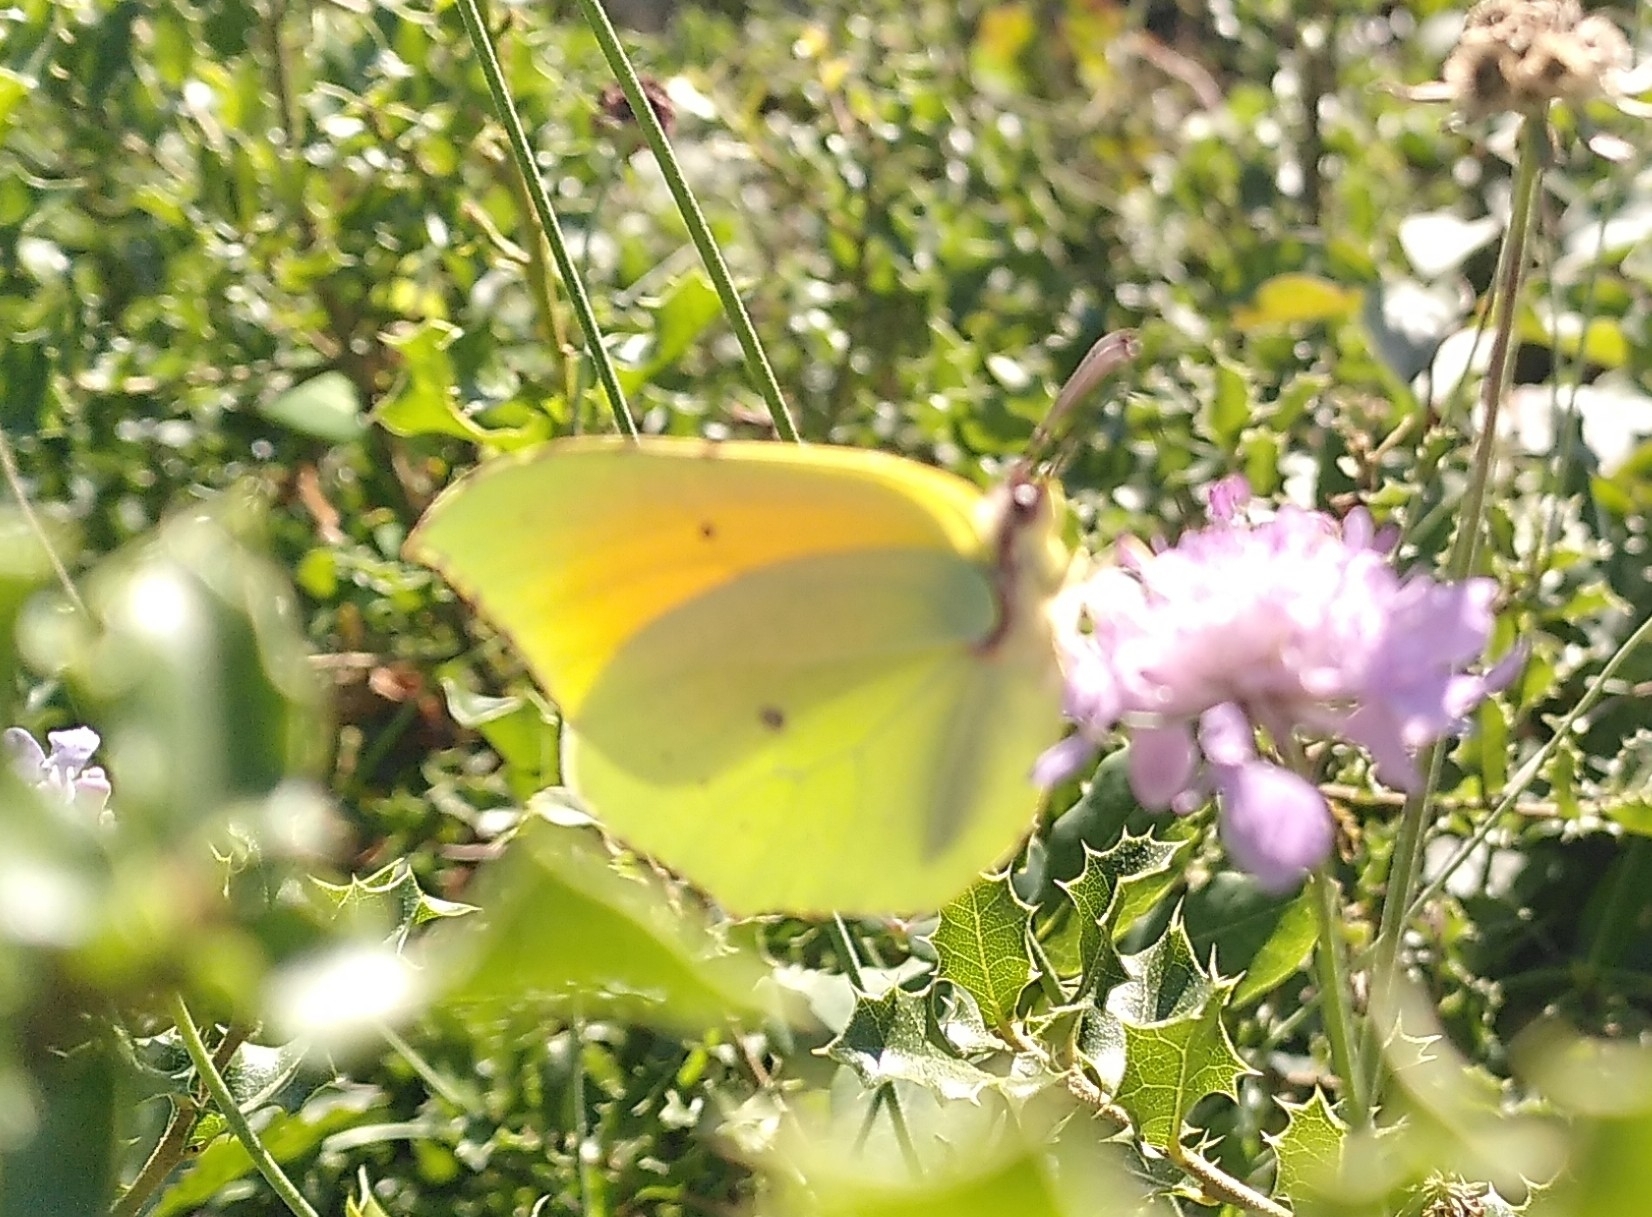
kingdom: Animalia
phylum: Arthropoda
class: Insecta
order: Lepidoptera
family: Pieridae
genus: Gonepteryx
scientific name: Gonepteryx cleopatra
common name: Cleopatra
